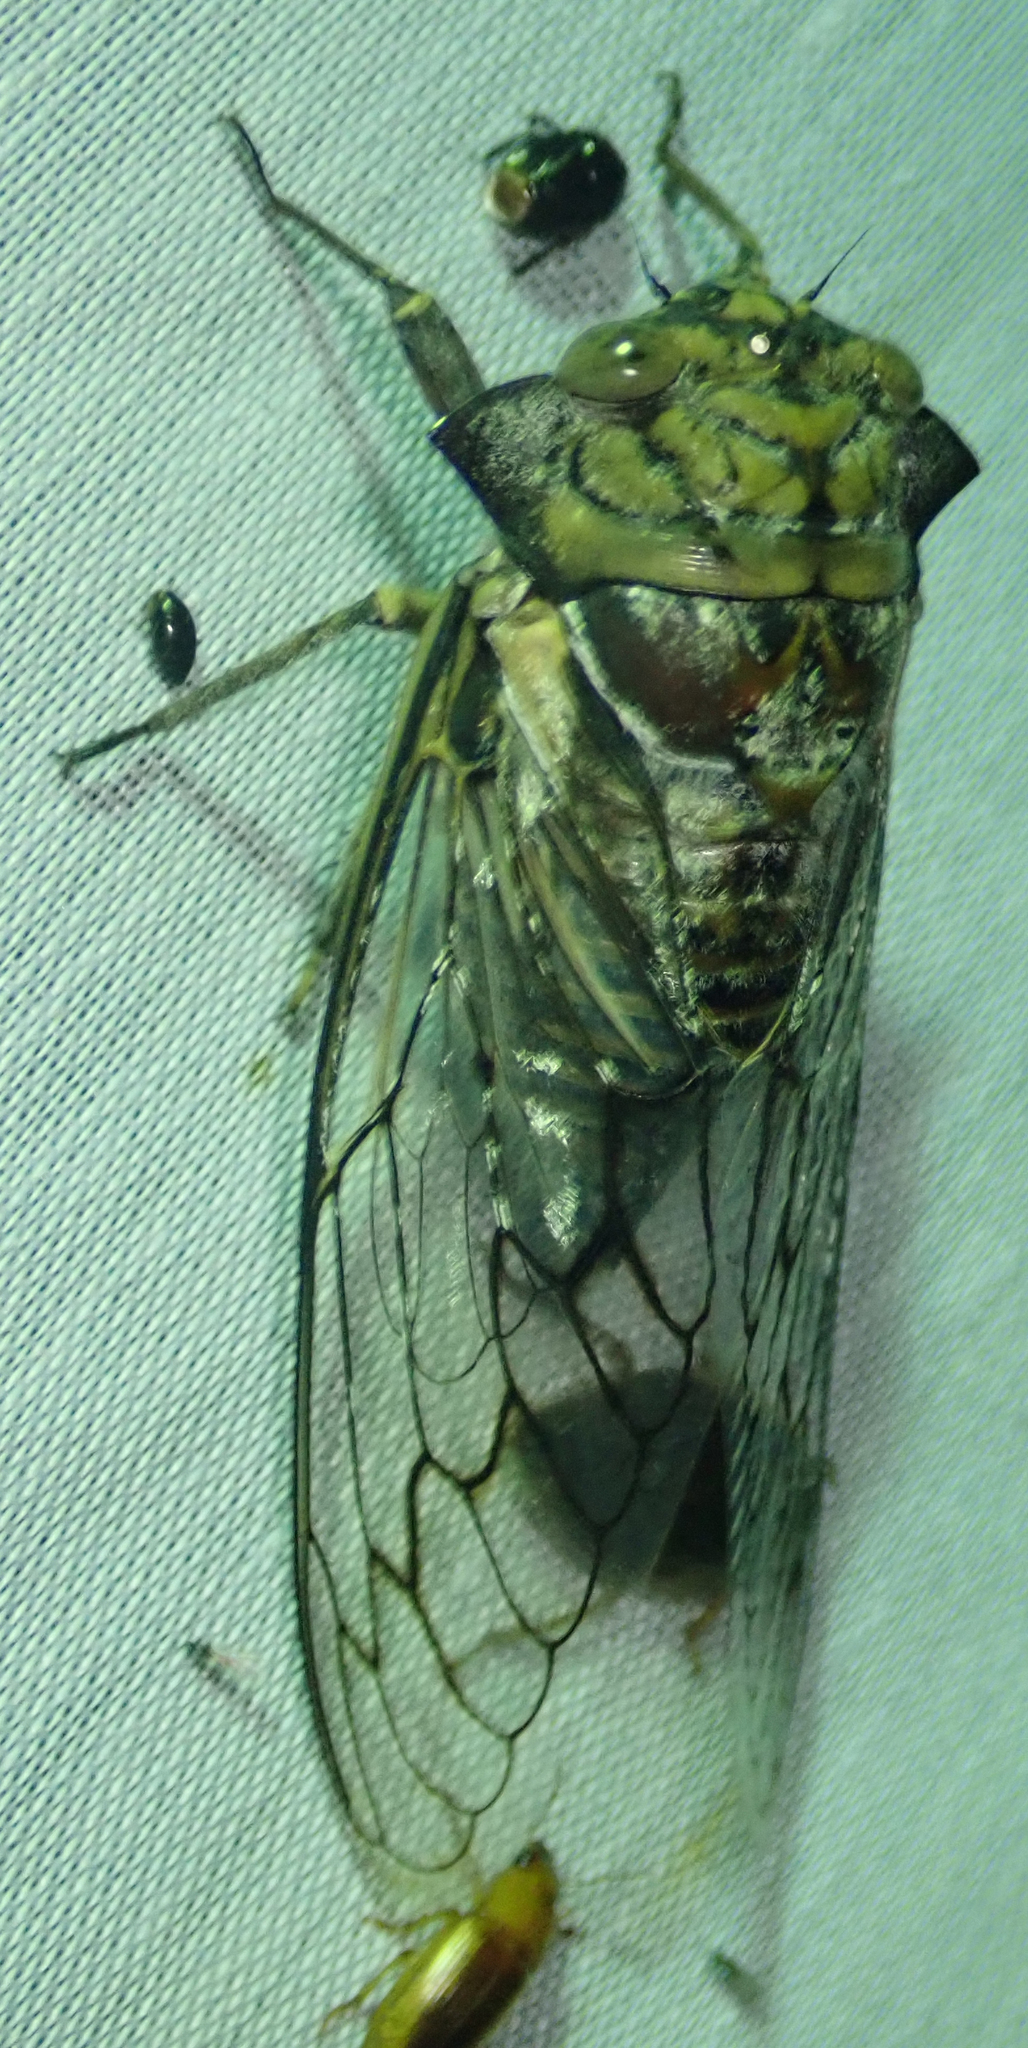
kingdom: Animalia
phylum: Arthropoda
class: Insecta
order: Hemiptera
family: Cicadidae
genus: Oxypleura
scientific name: Oxypleura quadraticollis
